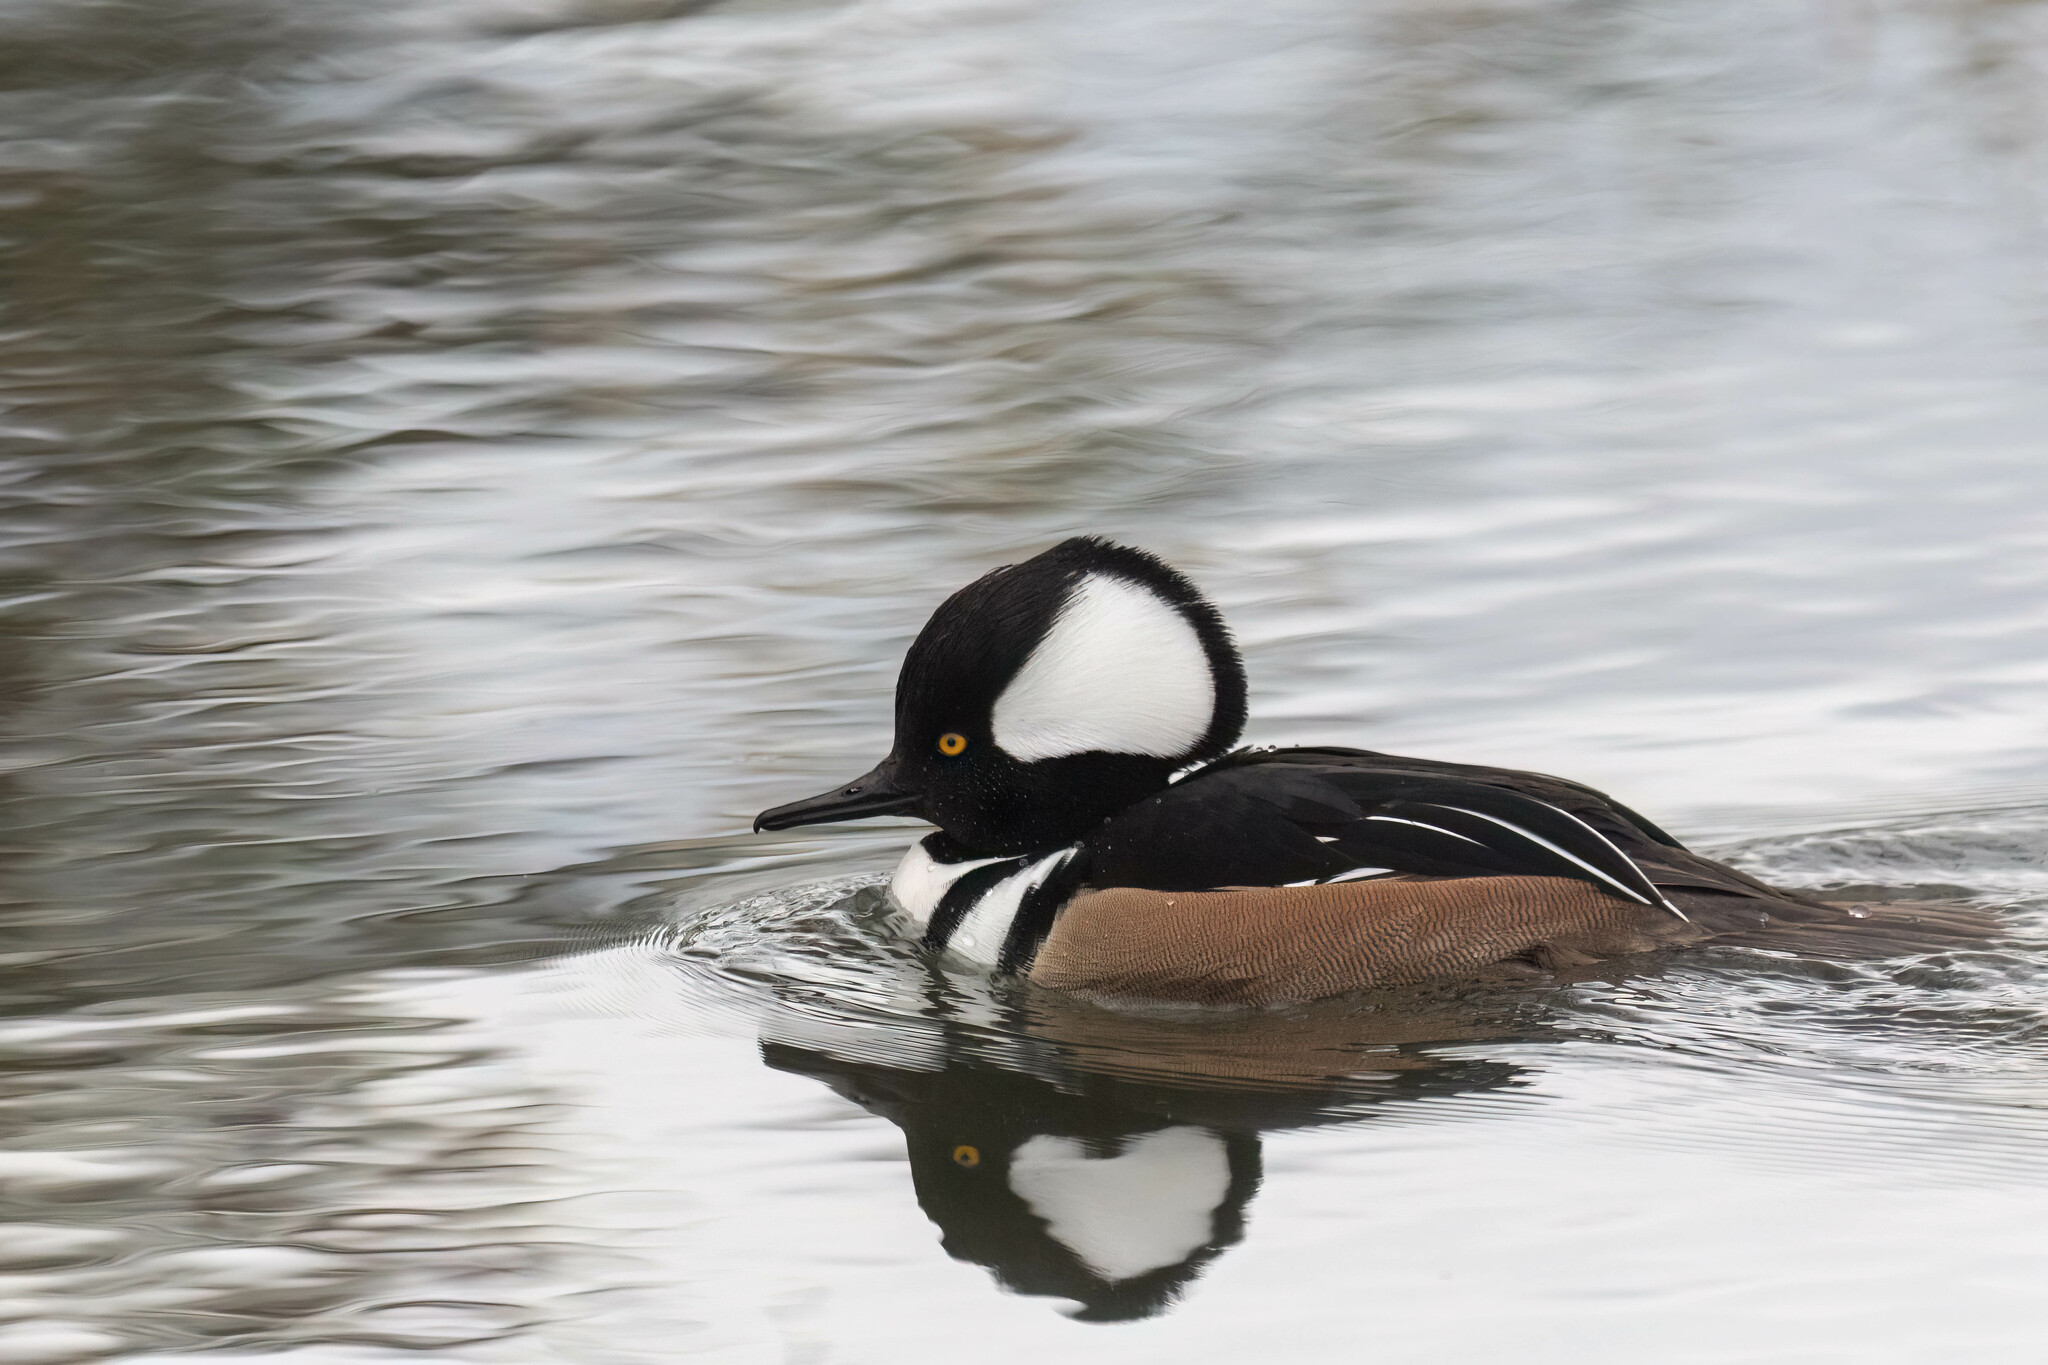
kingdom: Animalia
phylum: Chordata
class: Aves
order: Anseriformes
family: Anatidae
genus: Lophodytes
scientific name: Lophodytes cucullatus
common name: Hooded merganser
